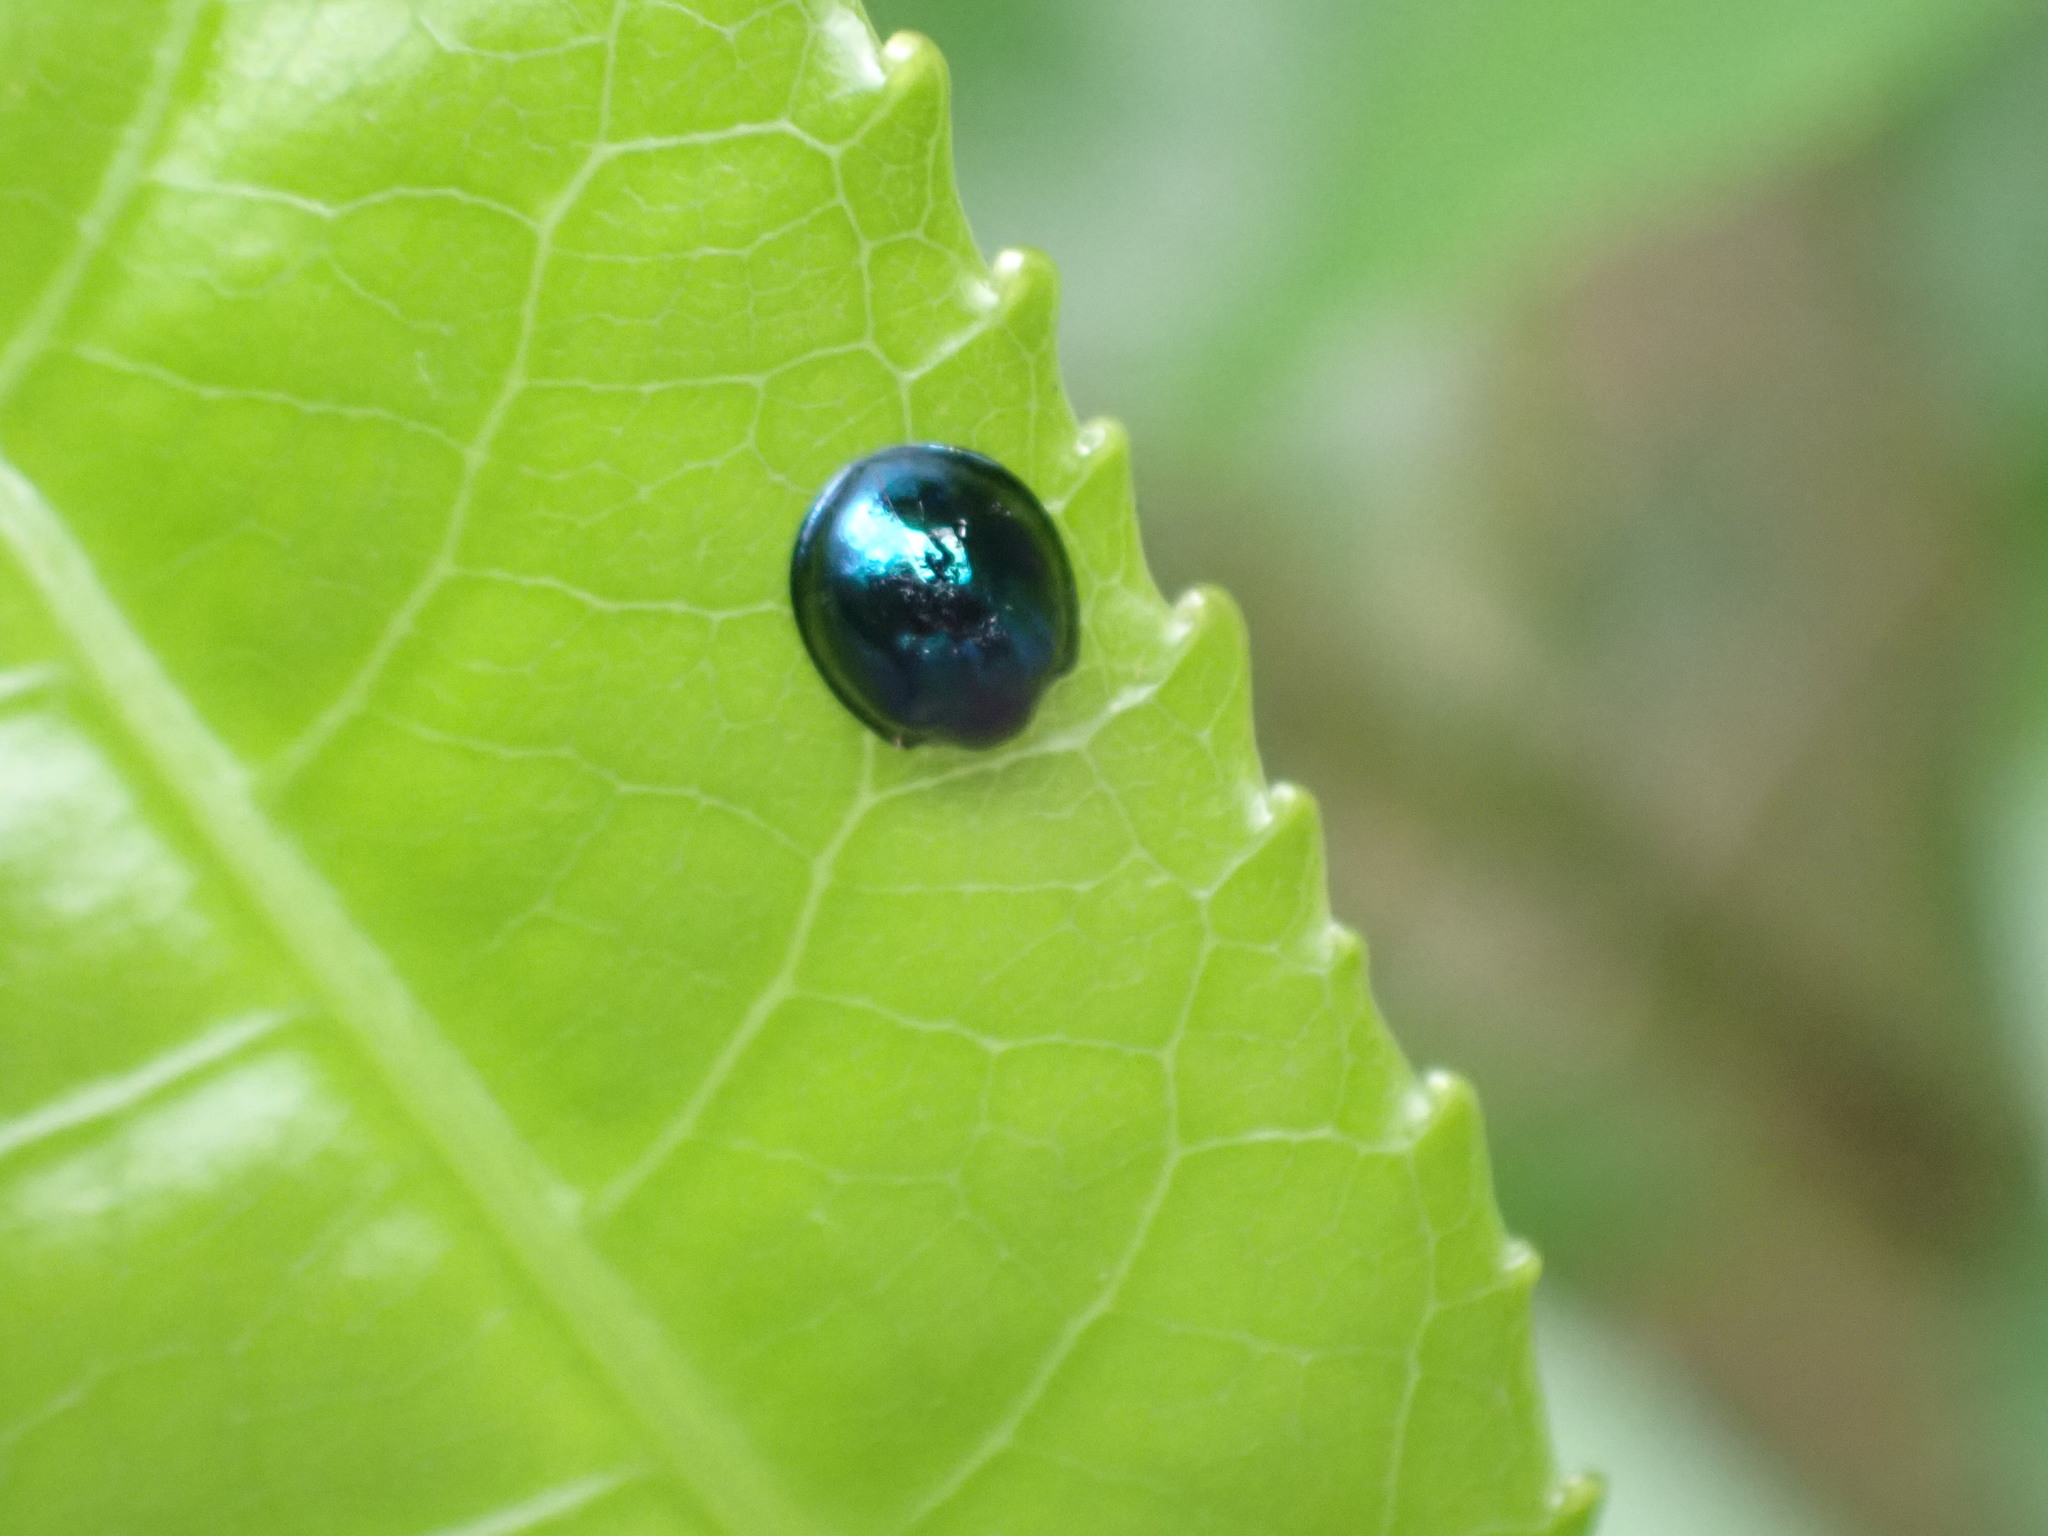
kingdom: Animalia
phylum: Arthropoda
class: Insecta
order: Coleoptera
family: Coccinellidae
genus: Halmus
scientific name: Halmus chalybeus
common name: Steel blue ladybird beetle
